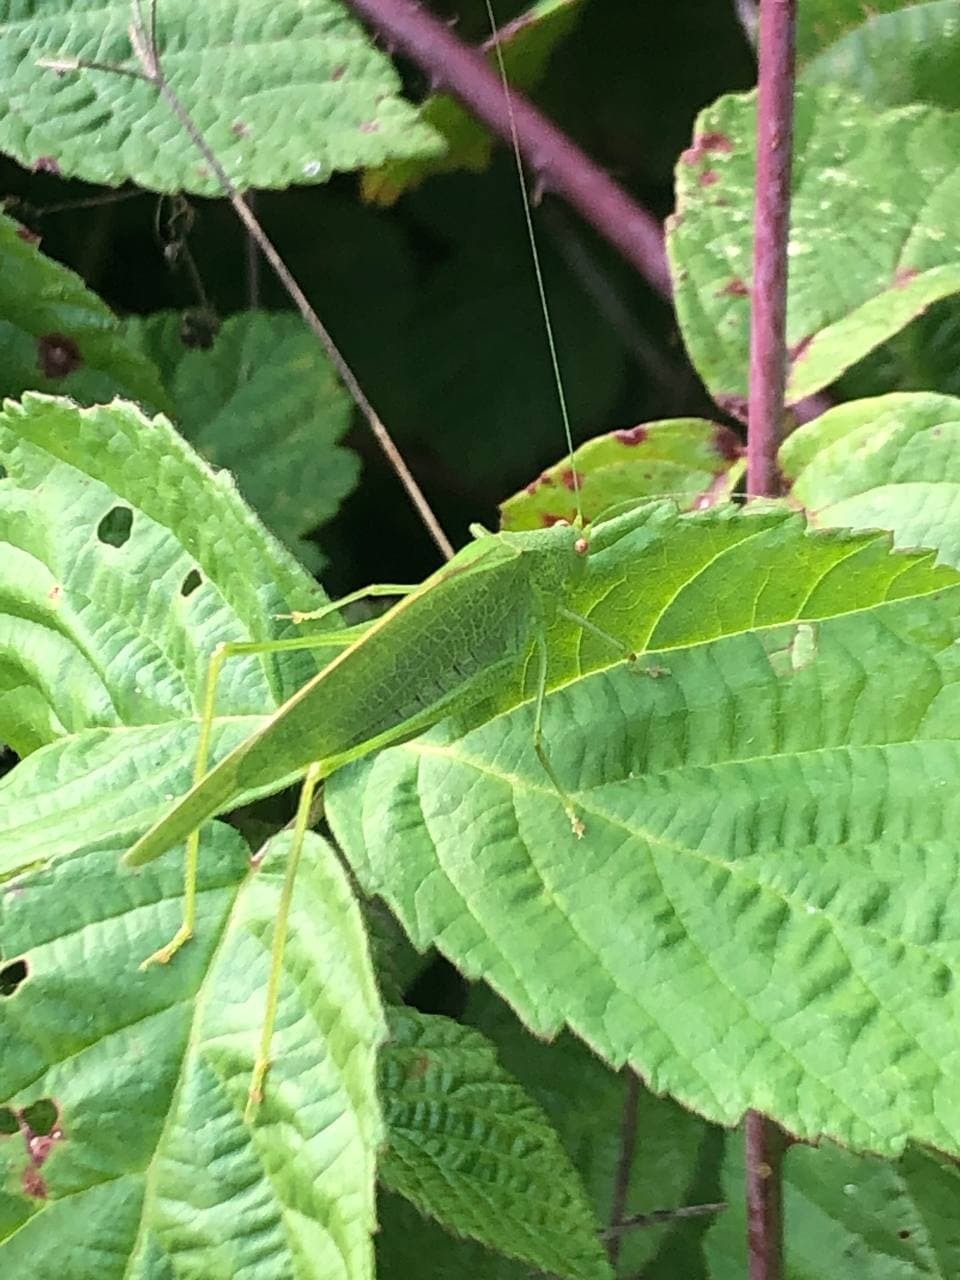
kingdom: Animalia
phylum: Arthropoda
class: Insecta
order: Orthoptera
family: Tettigoniidae
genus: Phaneroptera
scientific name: Phaneroptera nana
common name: Southern sickle bush-cricket
